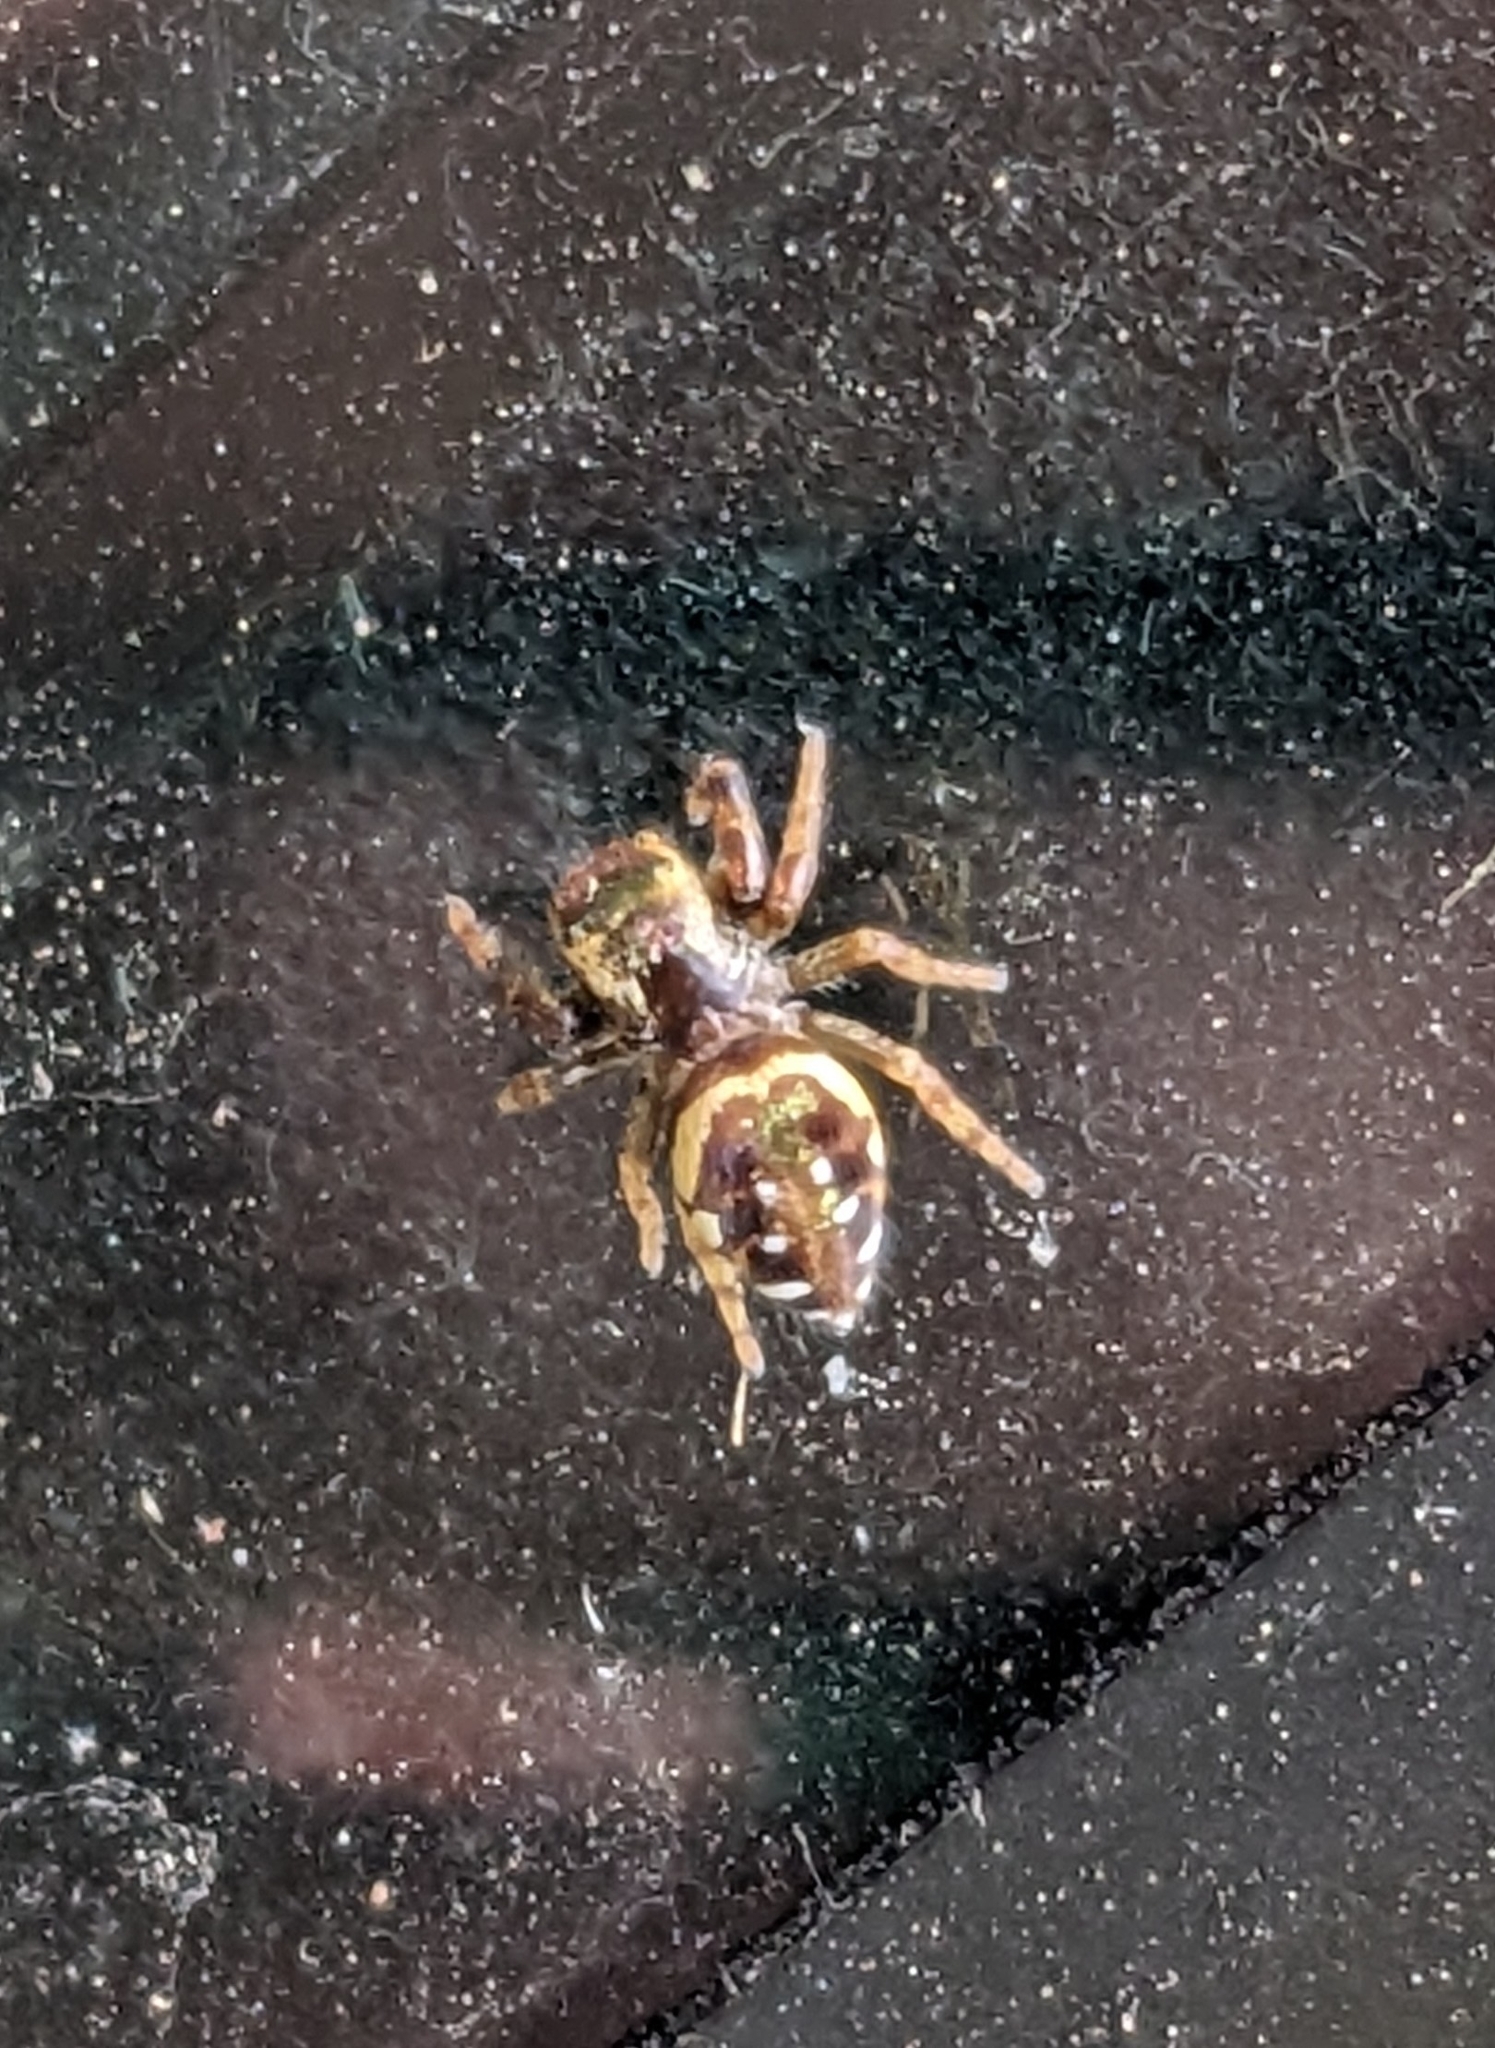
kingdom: Animalia
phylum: Arthropoda
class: Arachnida
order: Araneae
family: Salticidae
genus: Paraphidippus
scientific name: Paraphidippus aurantius
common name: Jumping spiders
